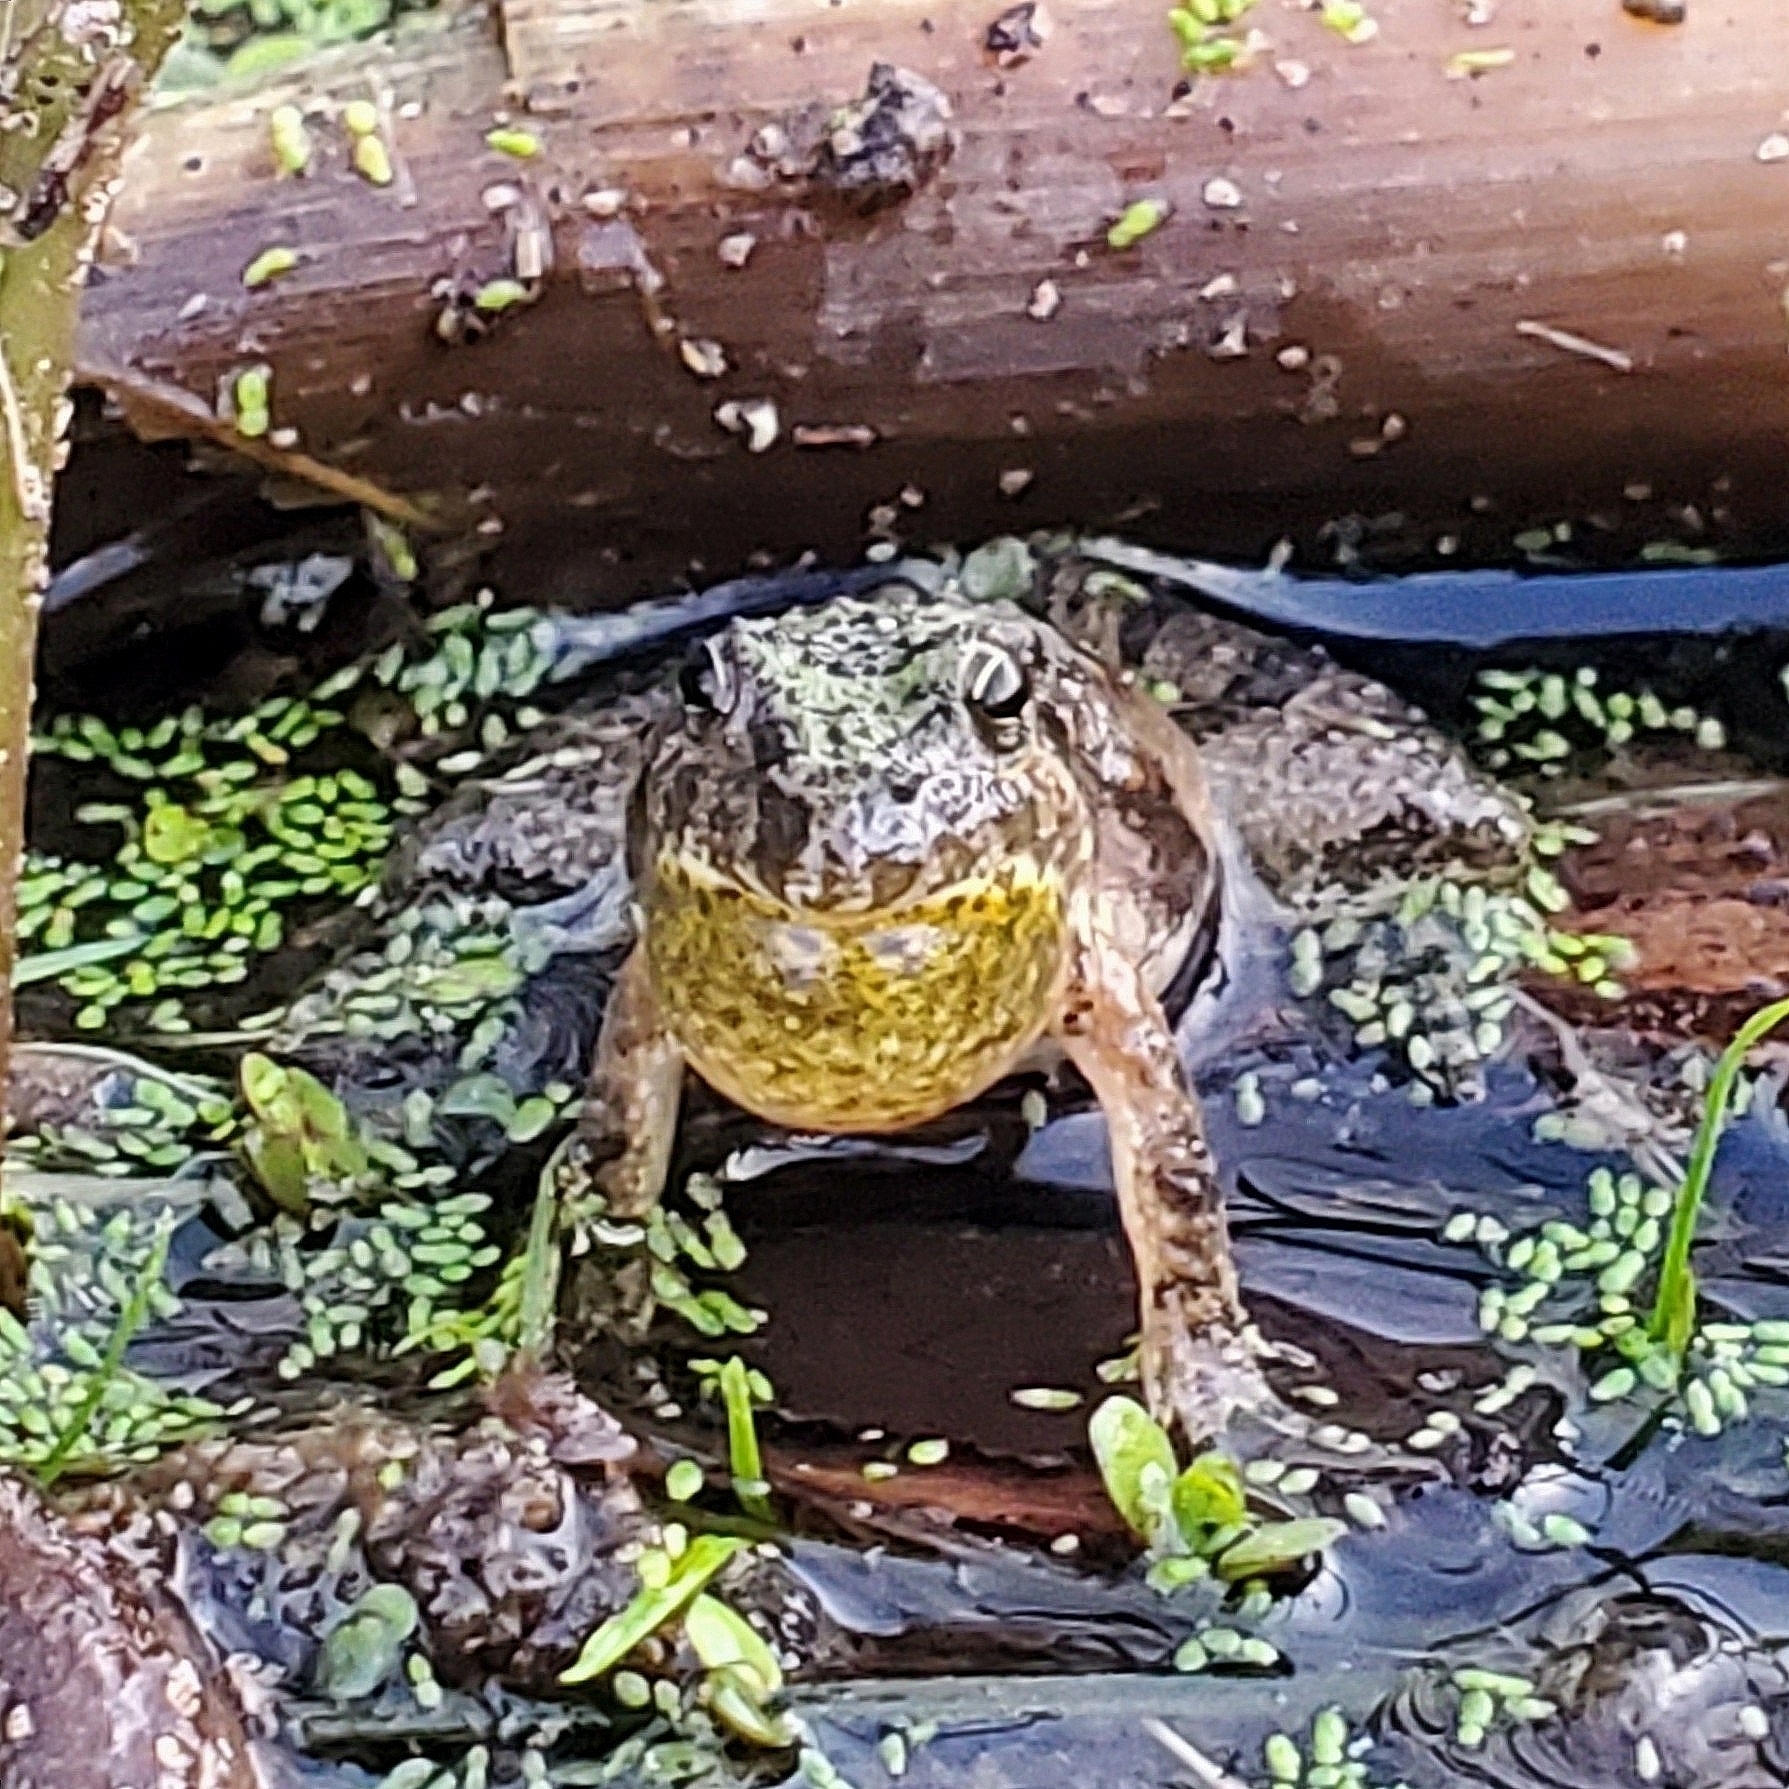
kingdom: Animalia
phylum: Chordata
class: Amphibia
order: Anura
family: Hylidae
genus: Acris
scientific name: Acris blanchardi
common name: Blanchard's cricket frog
